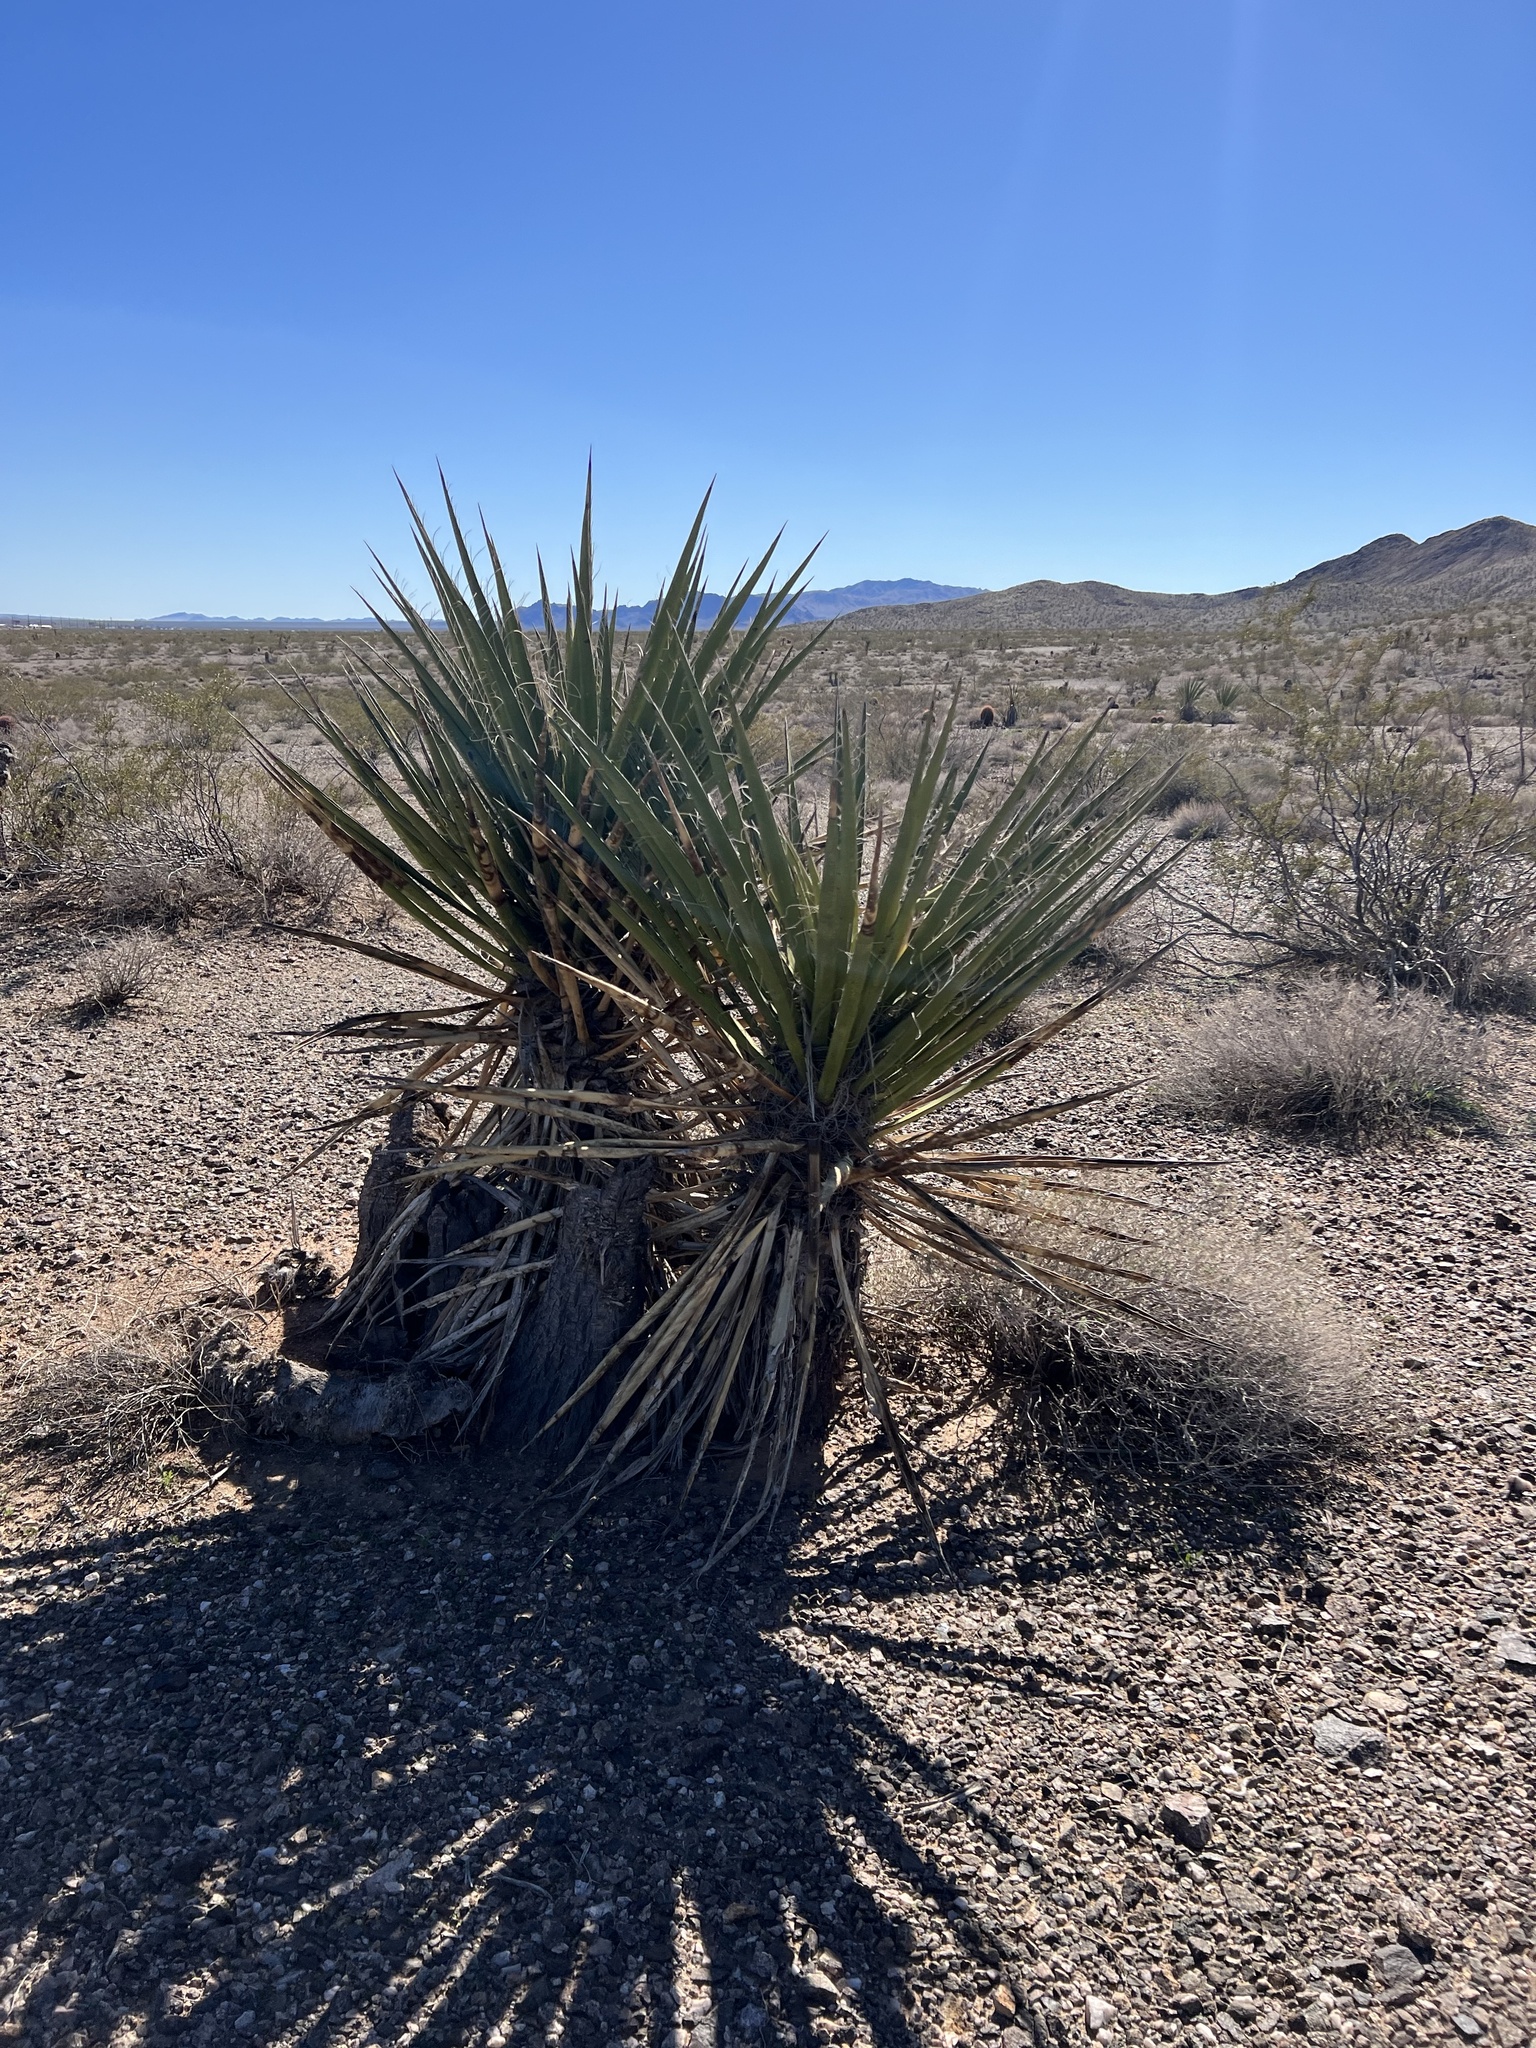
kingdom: Plantae
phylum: Tracheophyta
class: Liliopsida
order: Asparagales
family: Asparagaceae
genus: Yucca
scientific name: Yucca schidigera
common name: Mojave yucca
